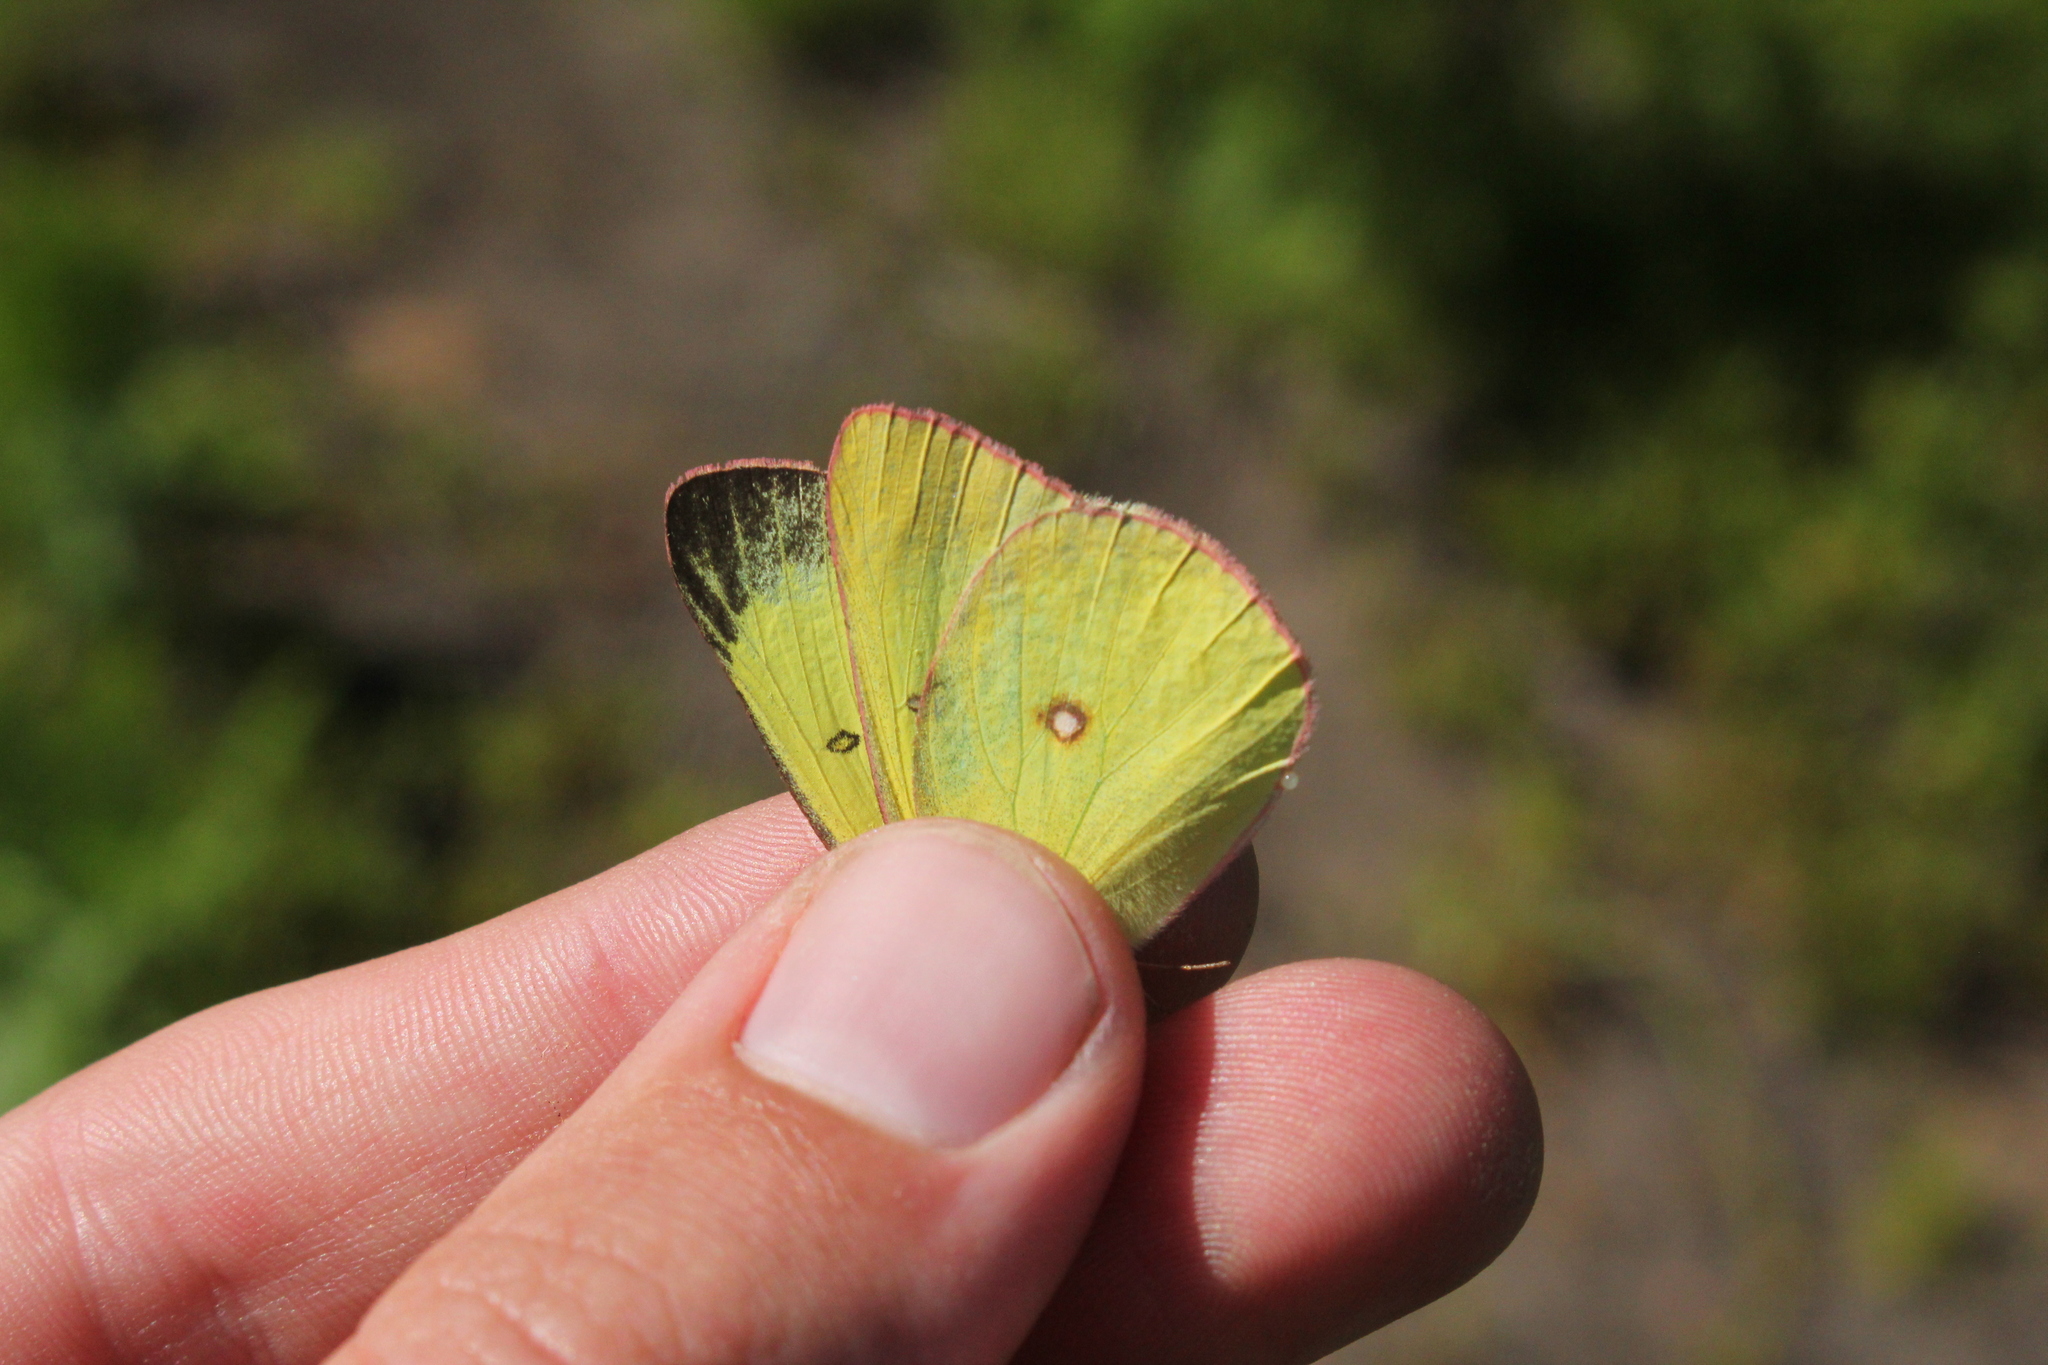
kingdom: Animalia
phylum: Arthropoda
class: Insecta
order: Lepidoptera
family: Pieridae
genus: Colias
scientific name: Colias interior
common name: Pink-edged sulphur
